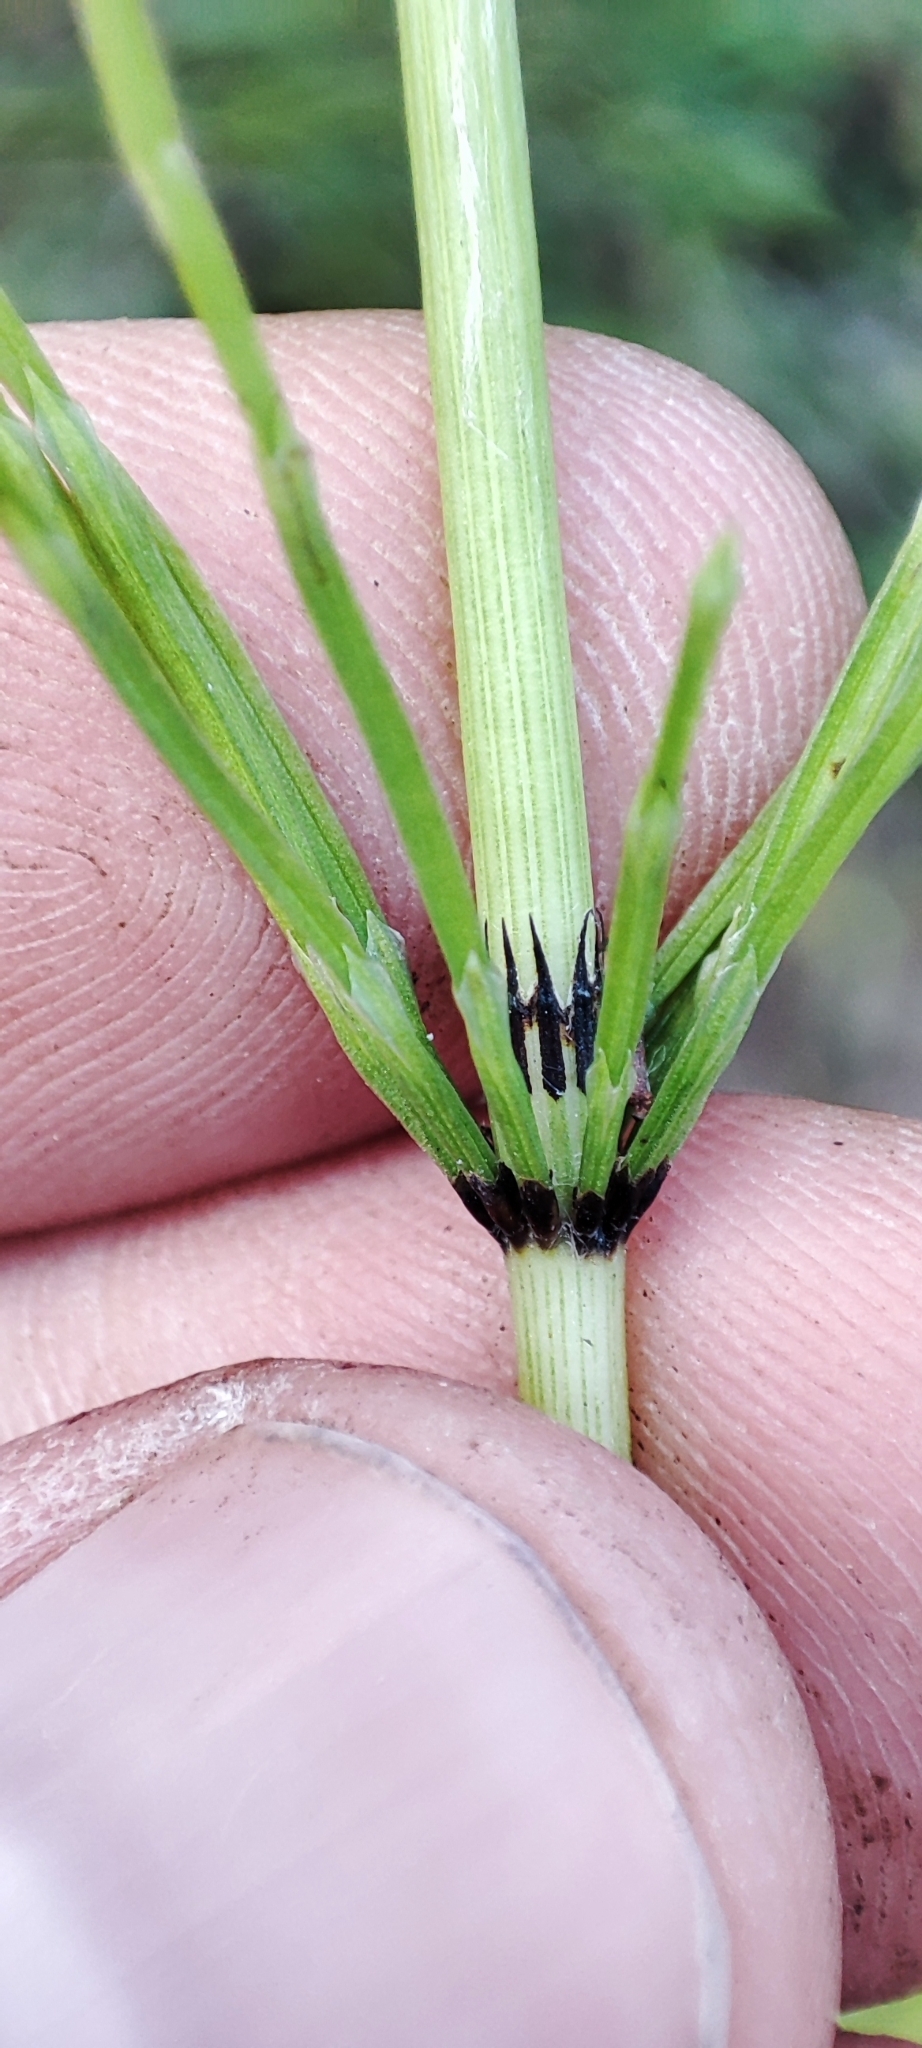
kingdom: Plantae
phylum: Tracheophyta
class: Polypodiopsida
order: Equisetales
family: Equisetaceae
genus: Equisetum
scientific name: Equisetum arvense
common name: Field horsetail
